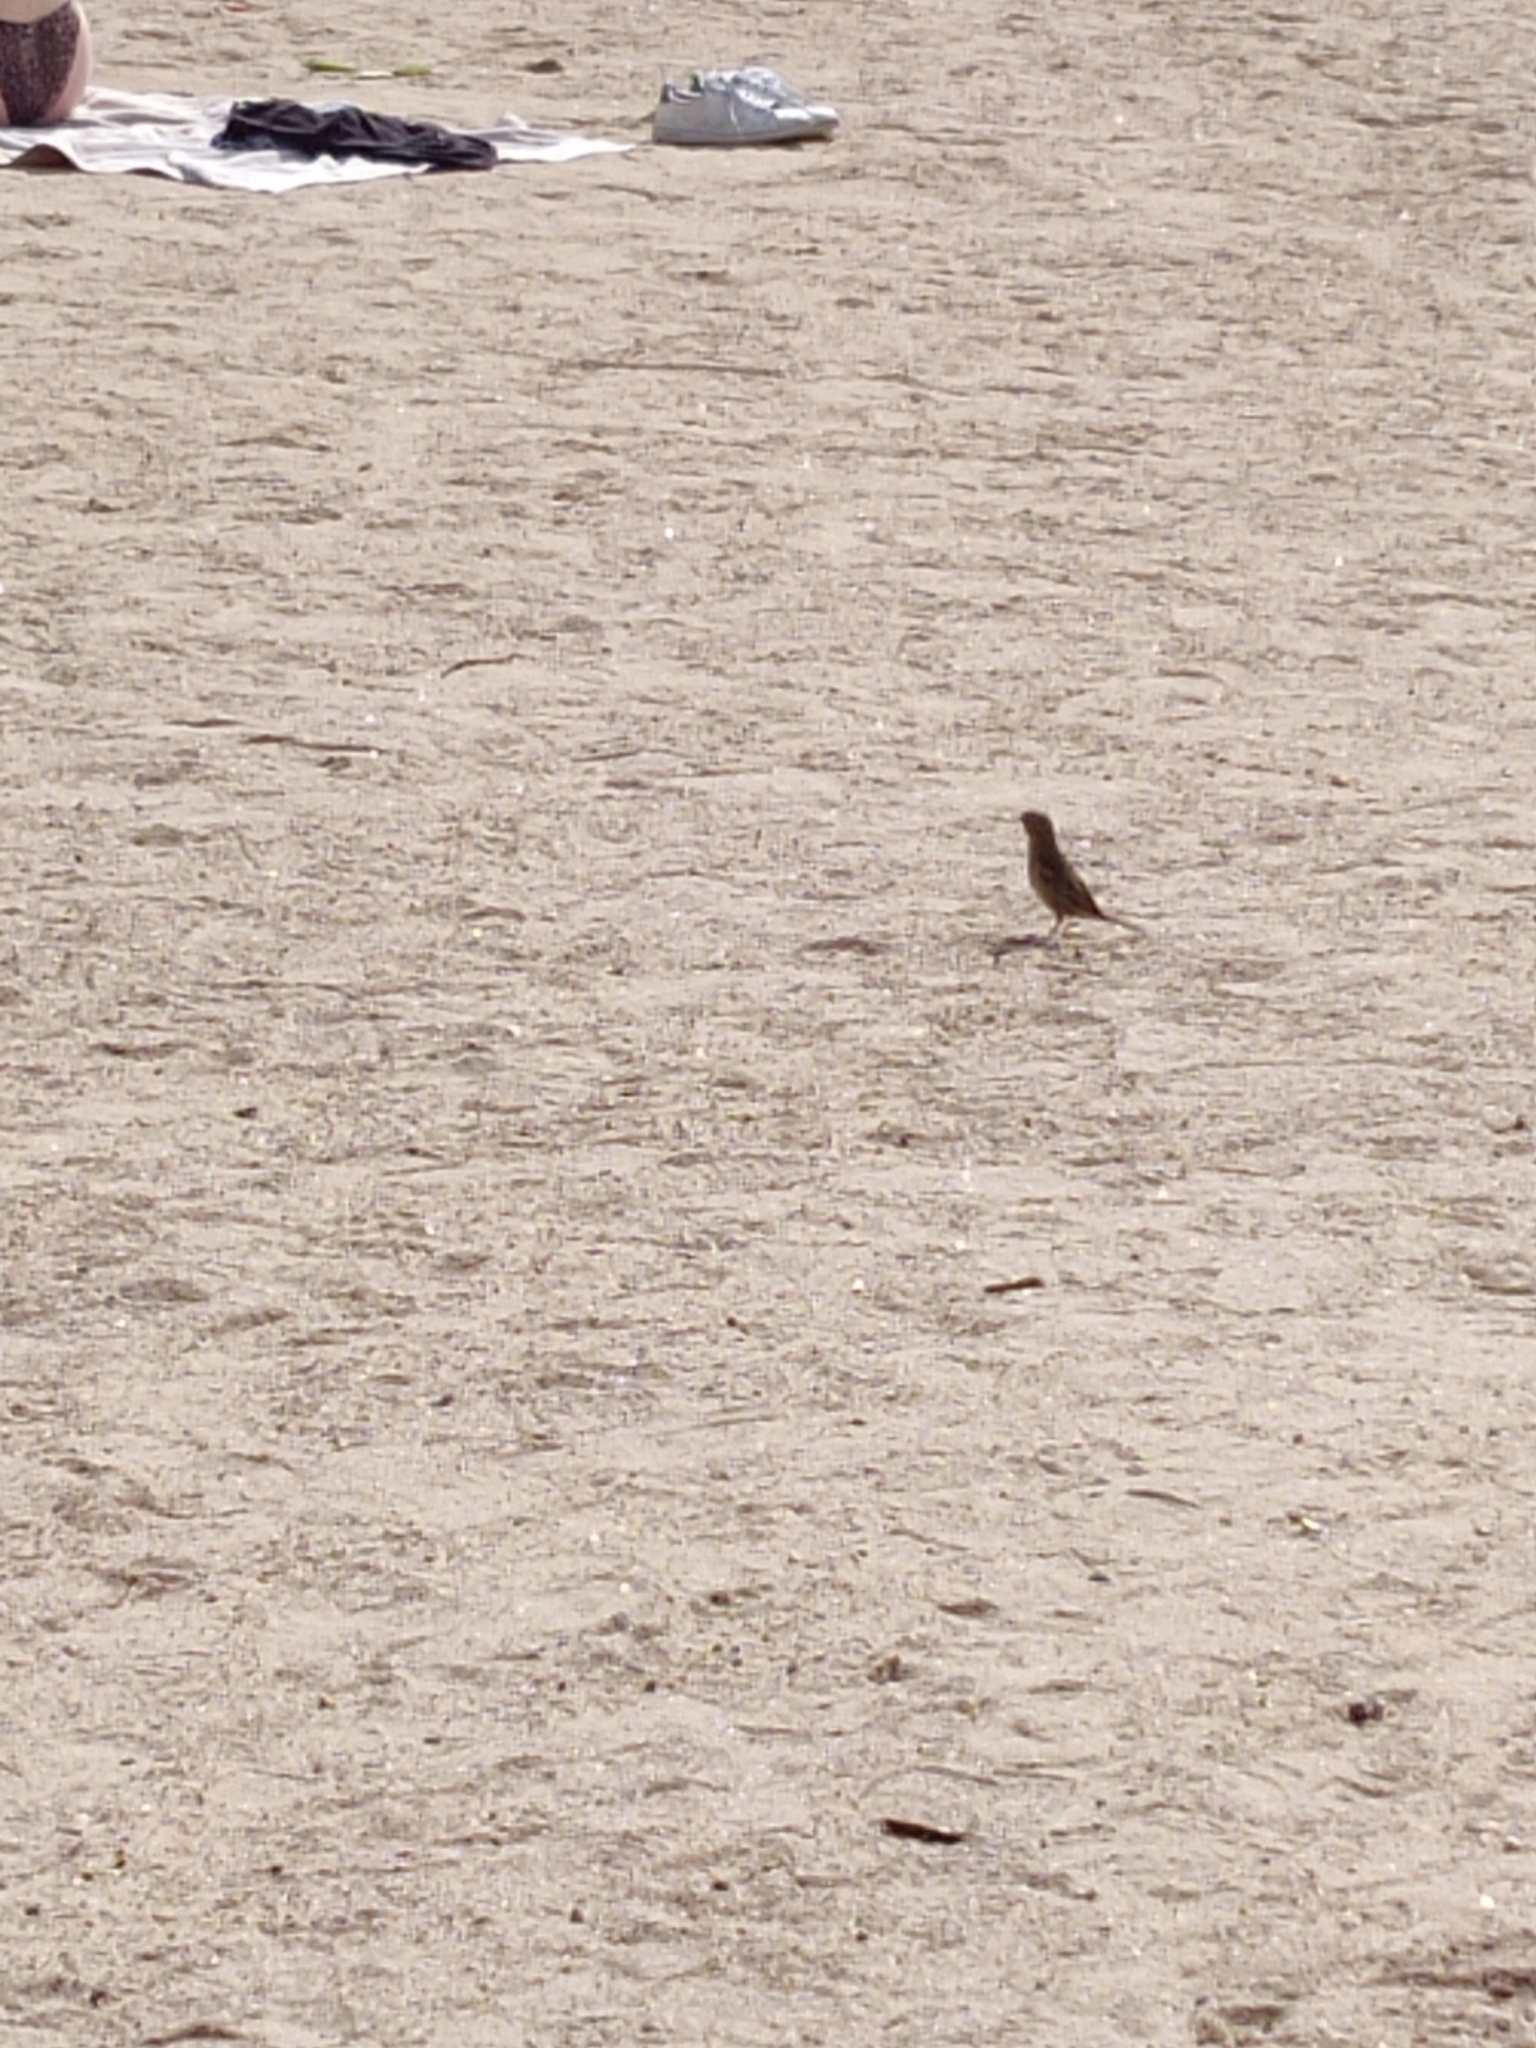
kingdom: Animalia
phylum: Chordata
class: Aves
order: Passeriformes
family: Passeridae
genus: Passer
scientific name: Passer domesticus
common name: House sparrow
